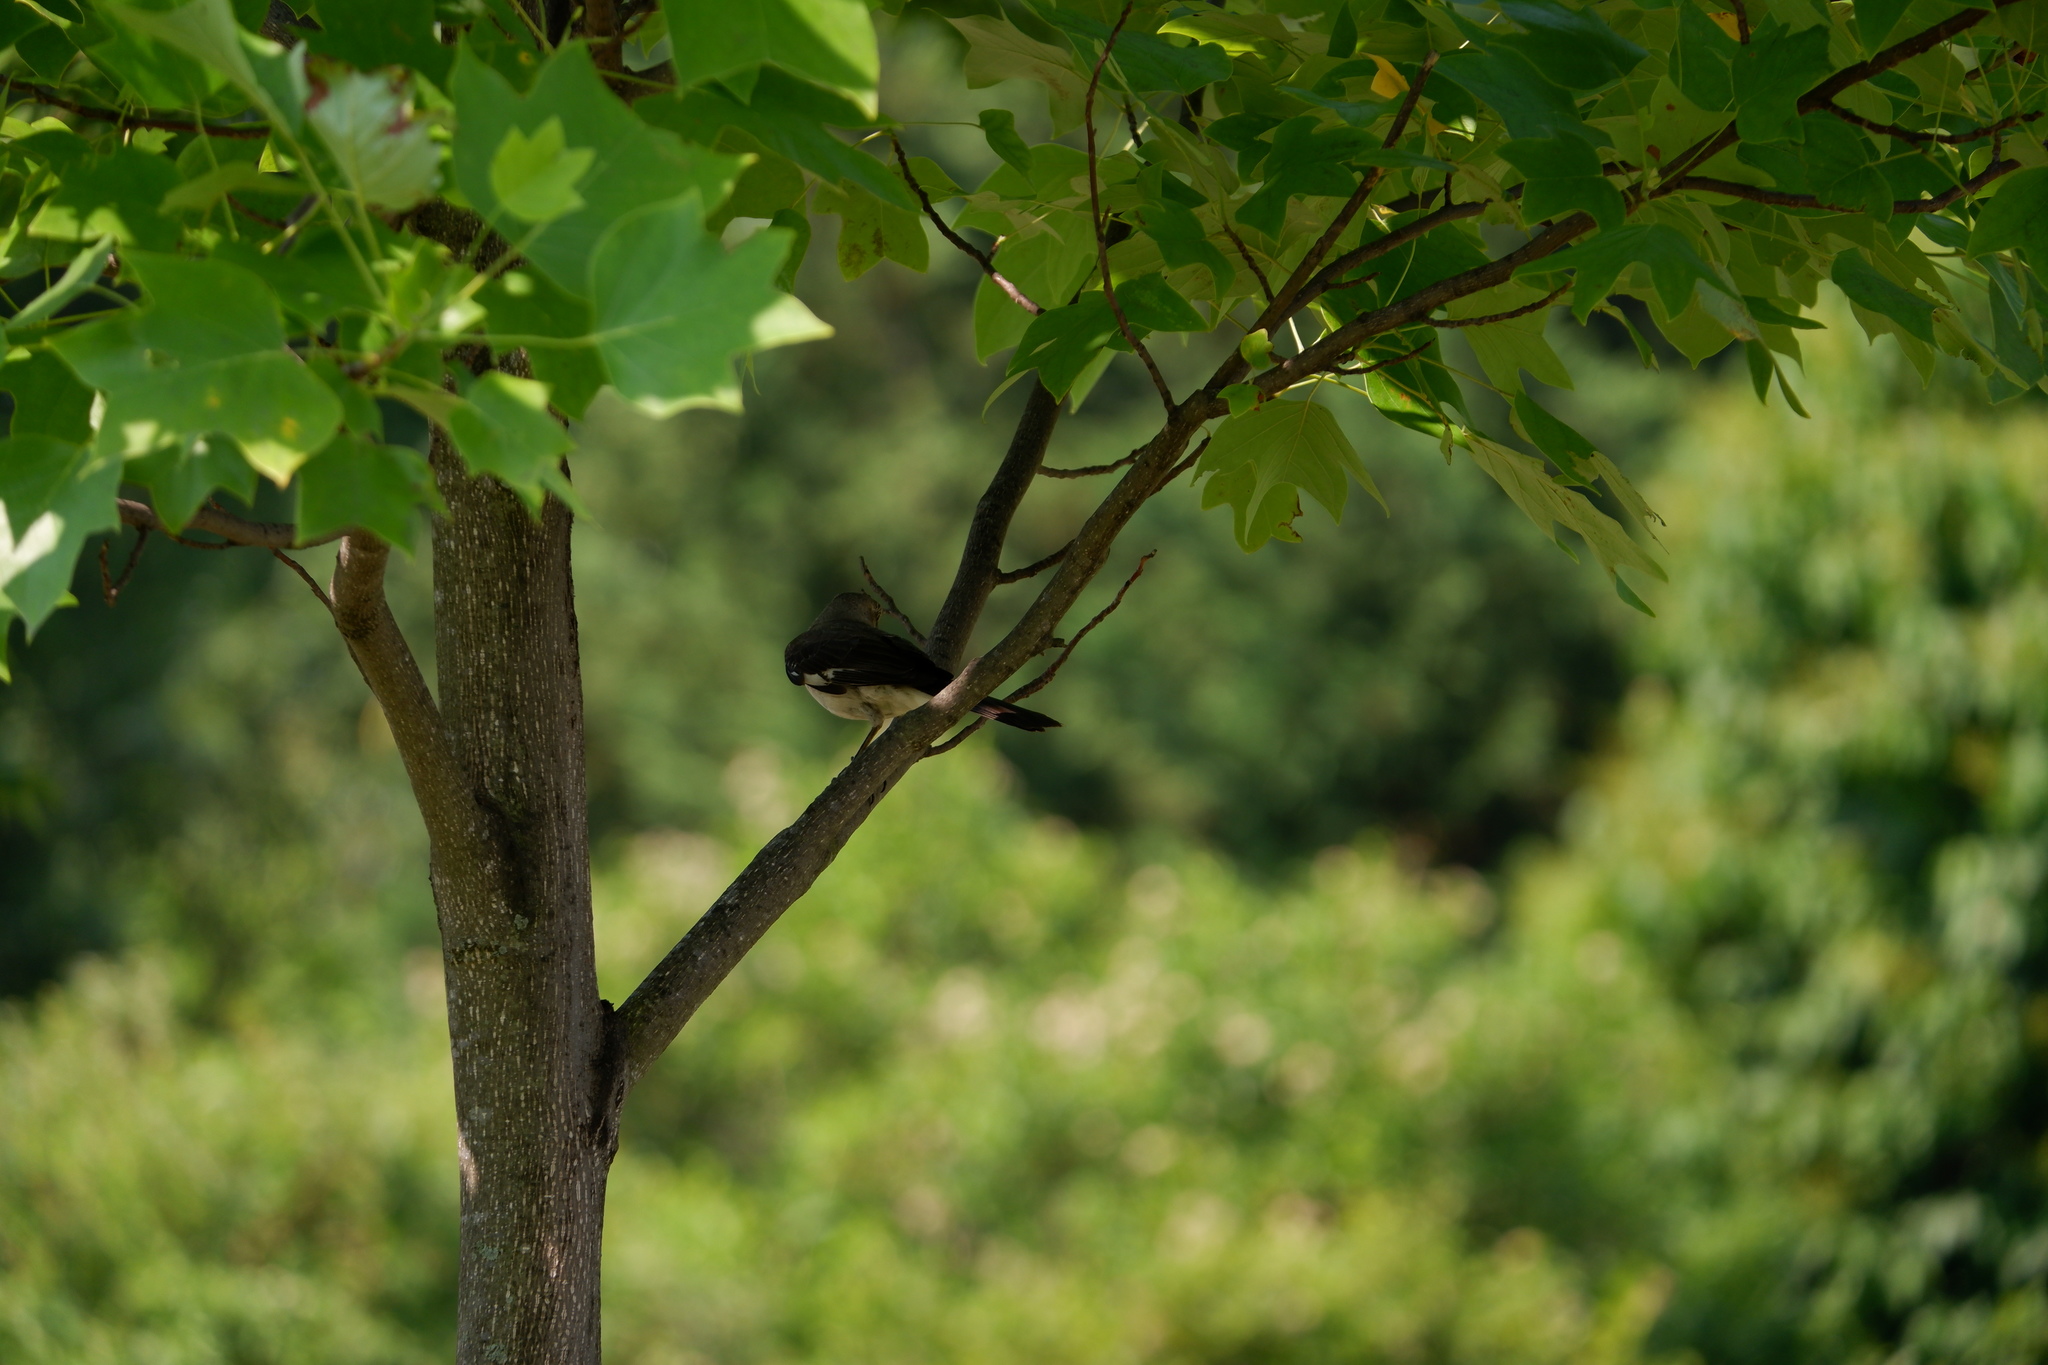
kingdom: Animalia
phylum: Chordata
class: Aves
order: Passeriformes
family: Mimidae
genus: Mimus
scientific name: Mimus polyglottos
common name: Northern mockingbird
